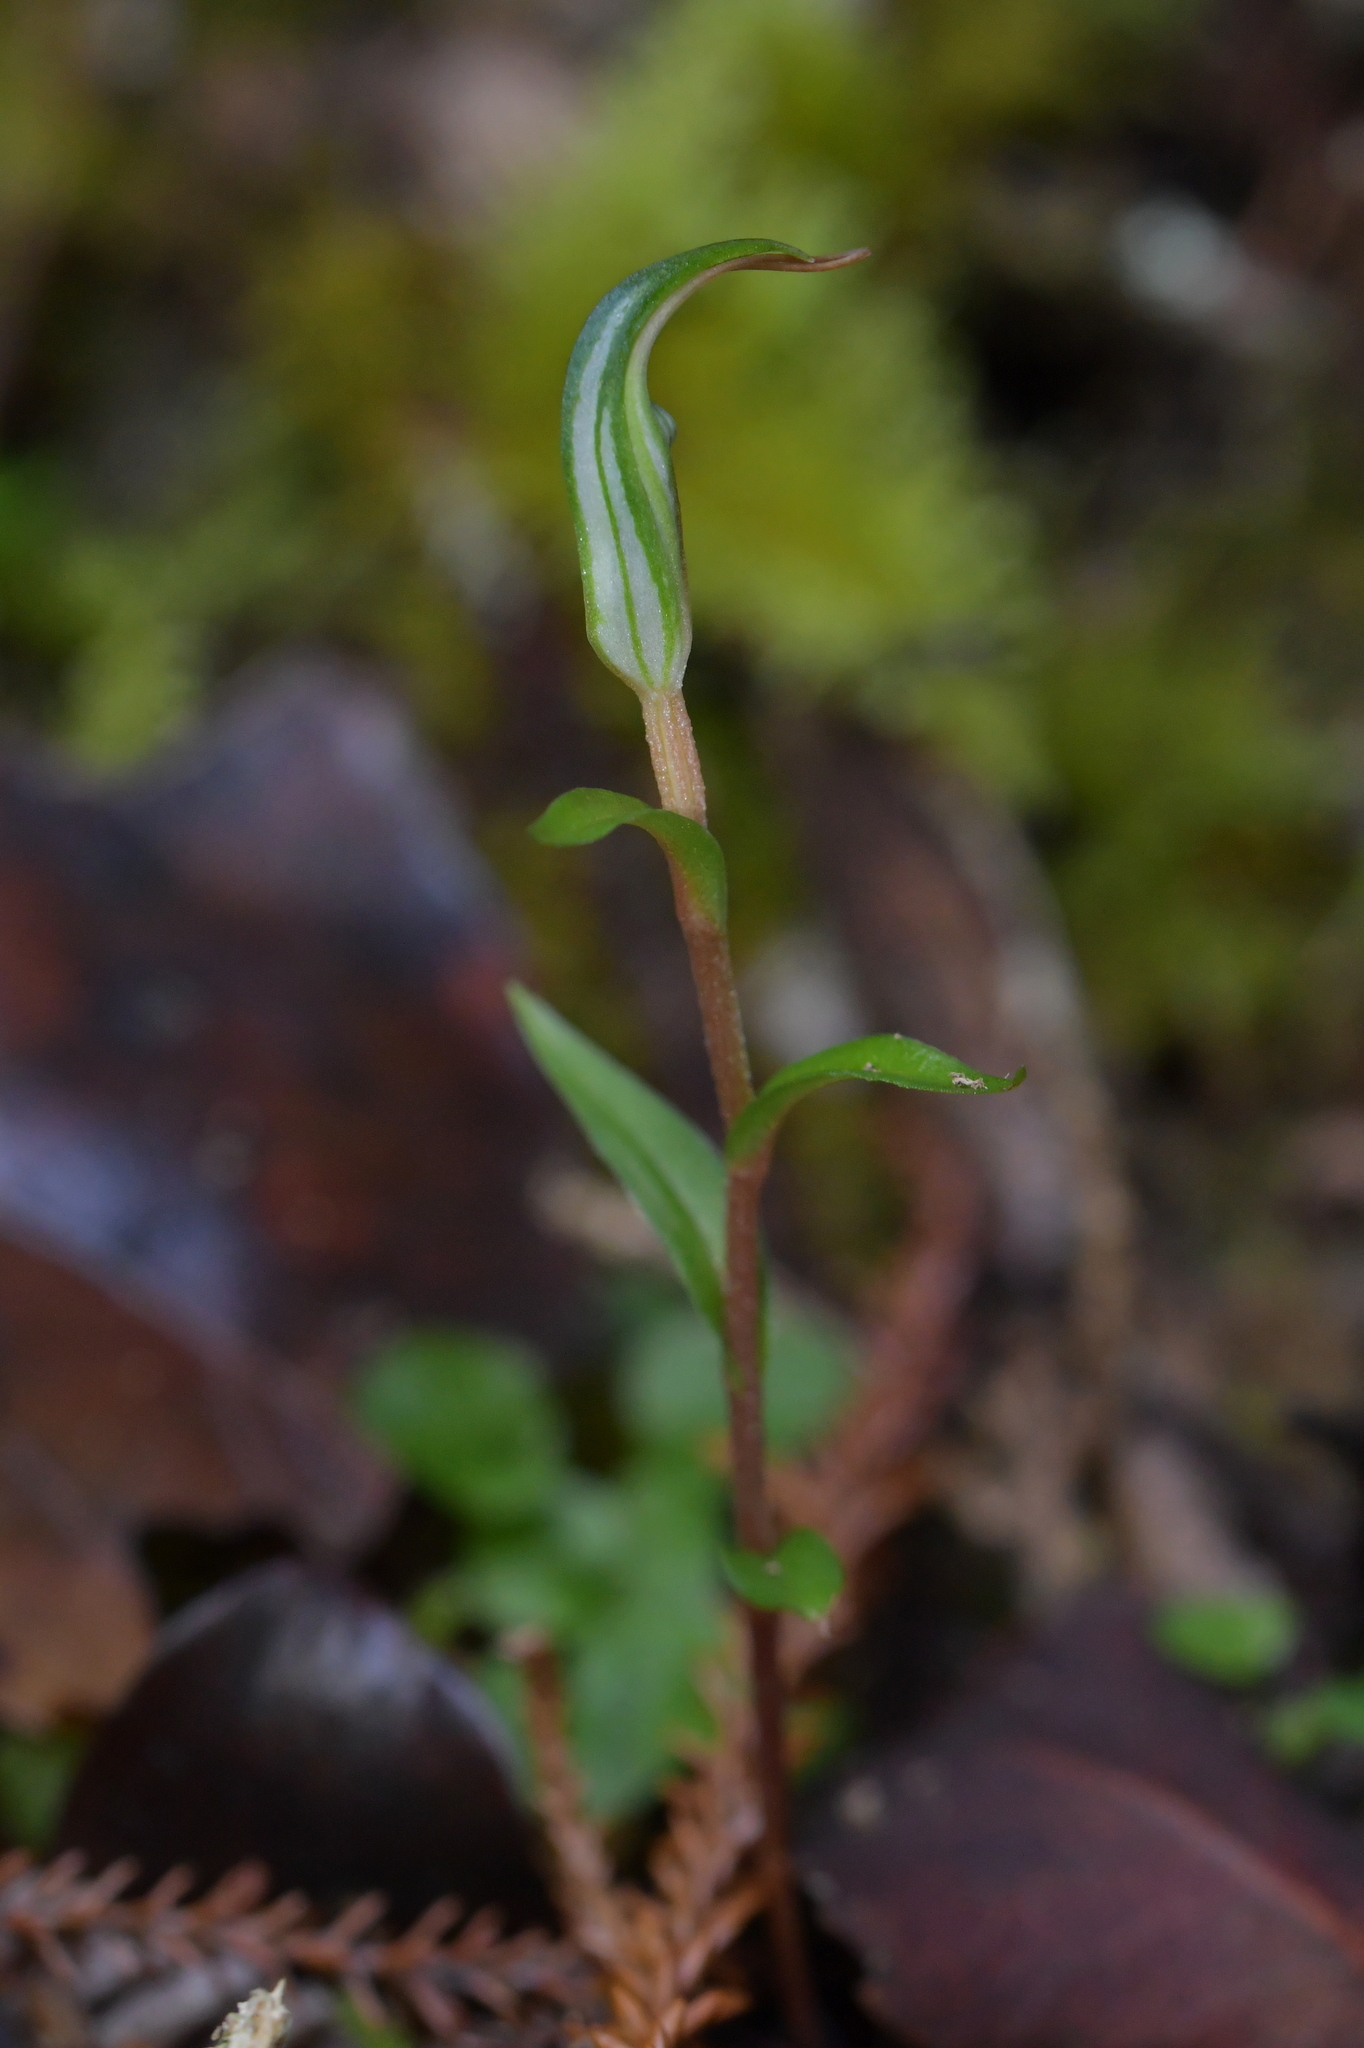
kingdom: Plantae
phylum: Tracheophyta
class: Liliopsida
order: Asparagales
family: Orchidaceae
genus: Pterostylis
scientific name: Pterostylis alobula
